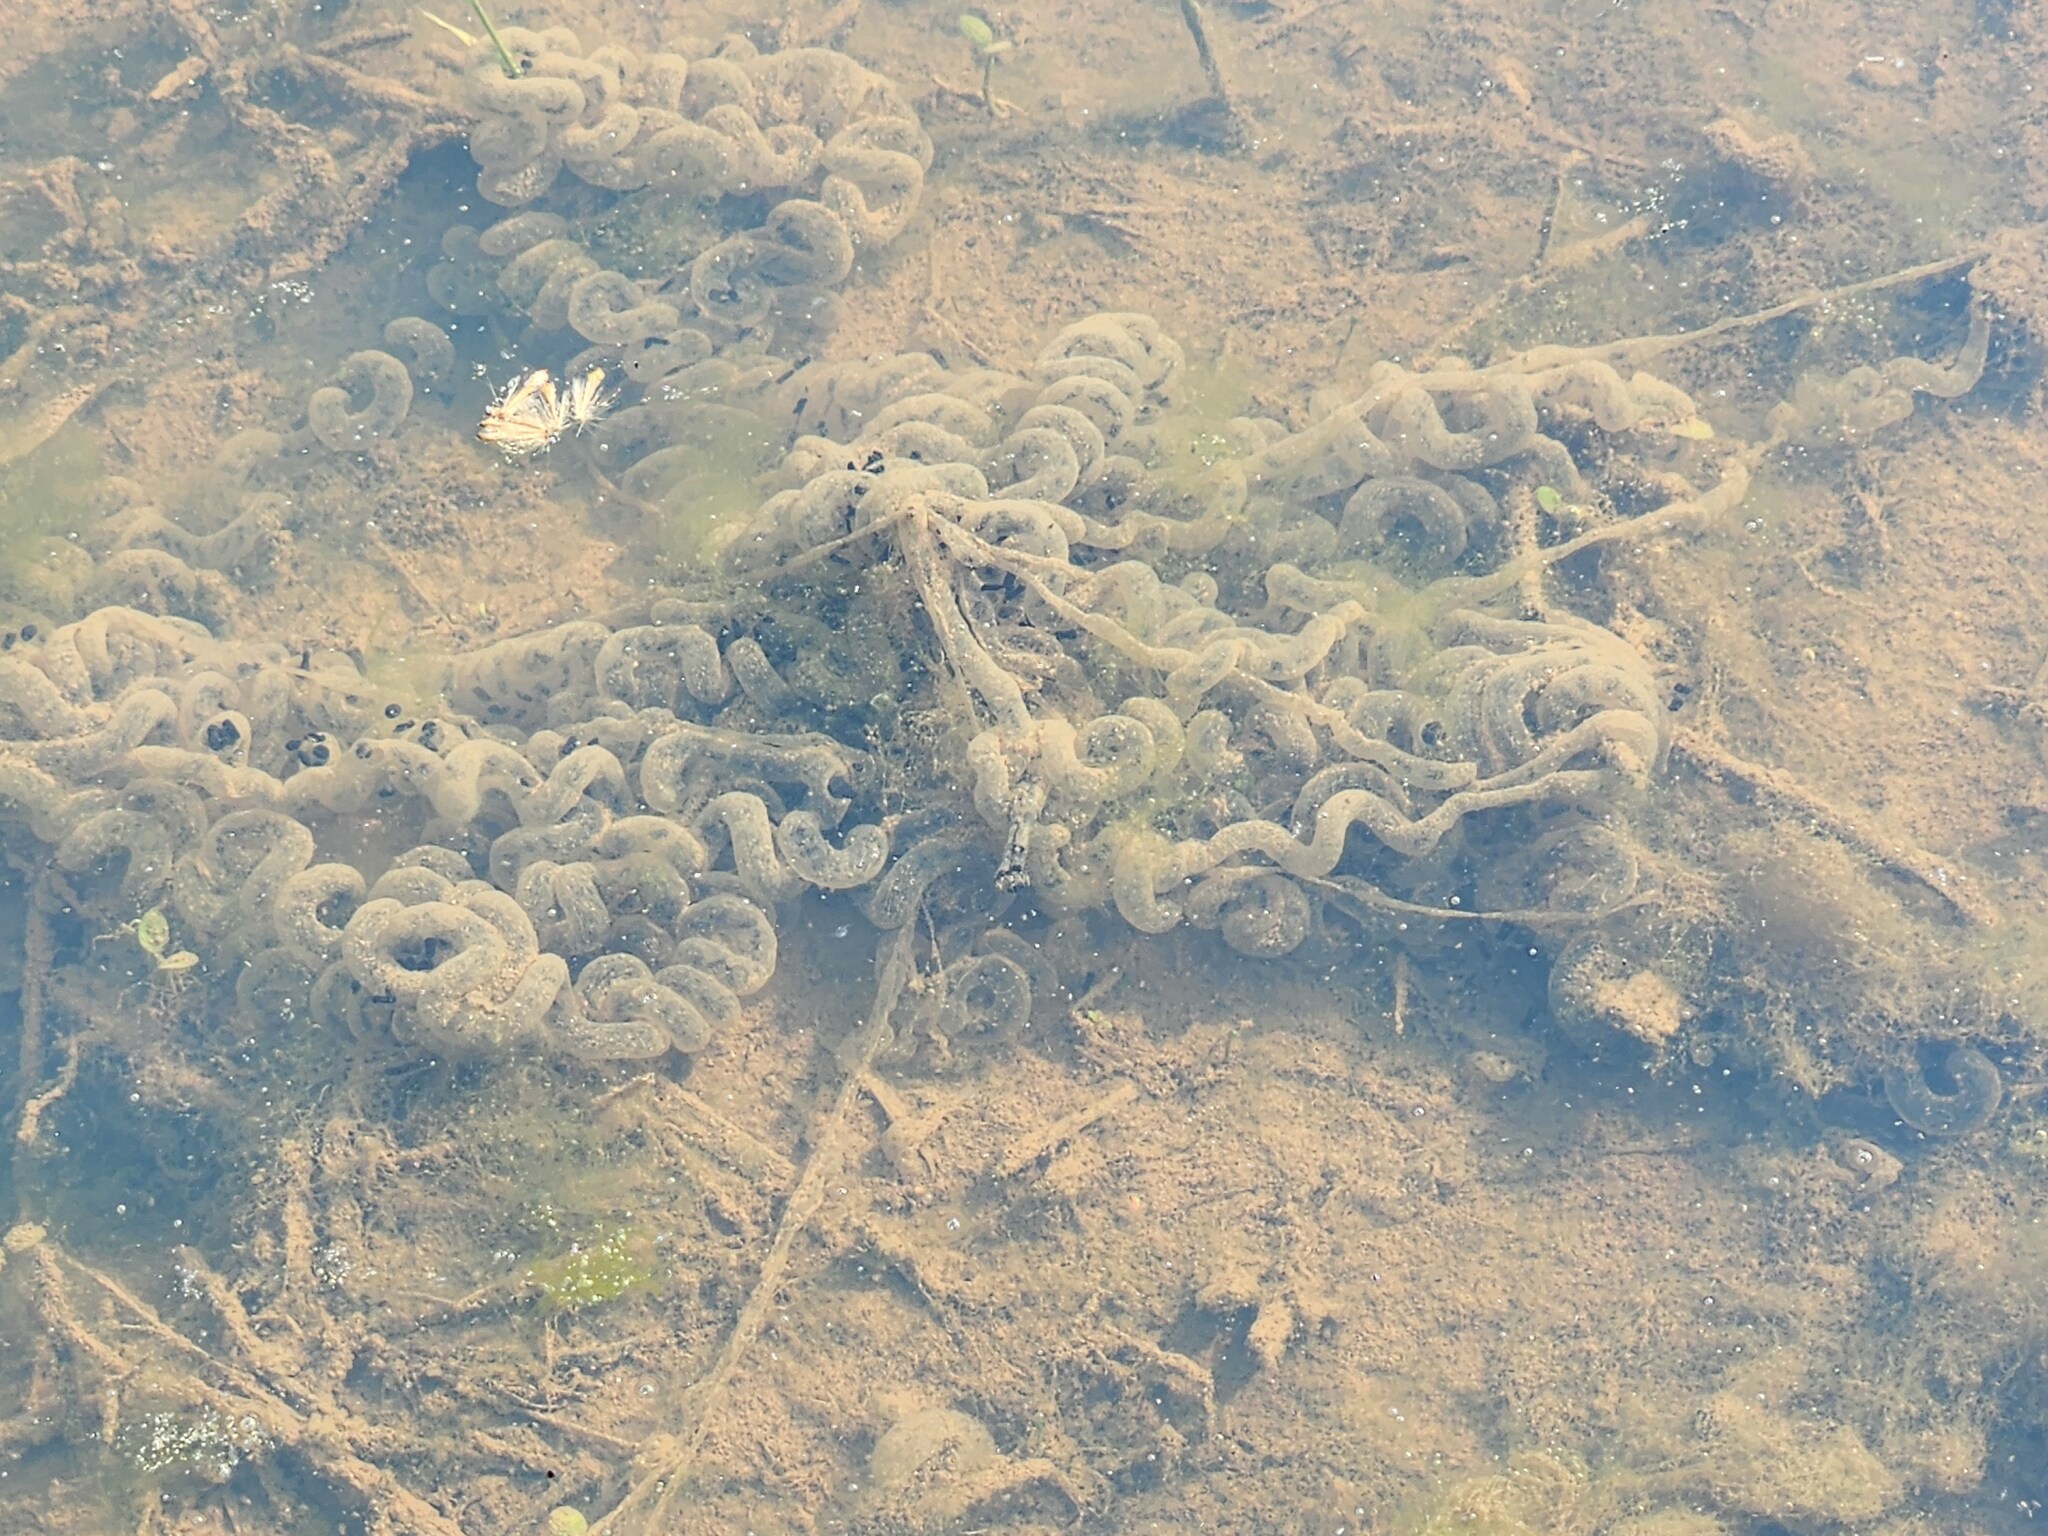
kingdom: Animalia
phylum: Chordata
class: Amphibia
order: Anura
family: Bufonidae
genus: Anaxyrus
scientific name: Anaxyrus americanus
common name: American toad
